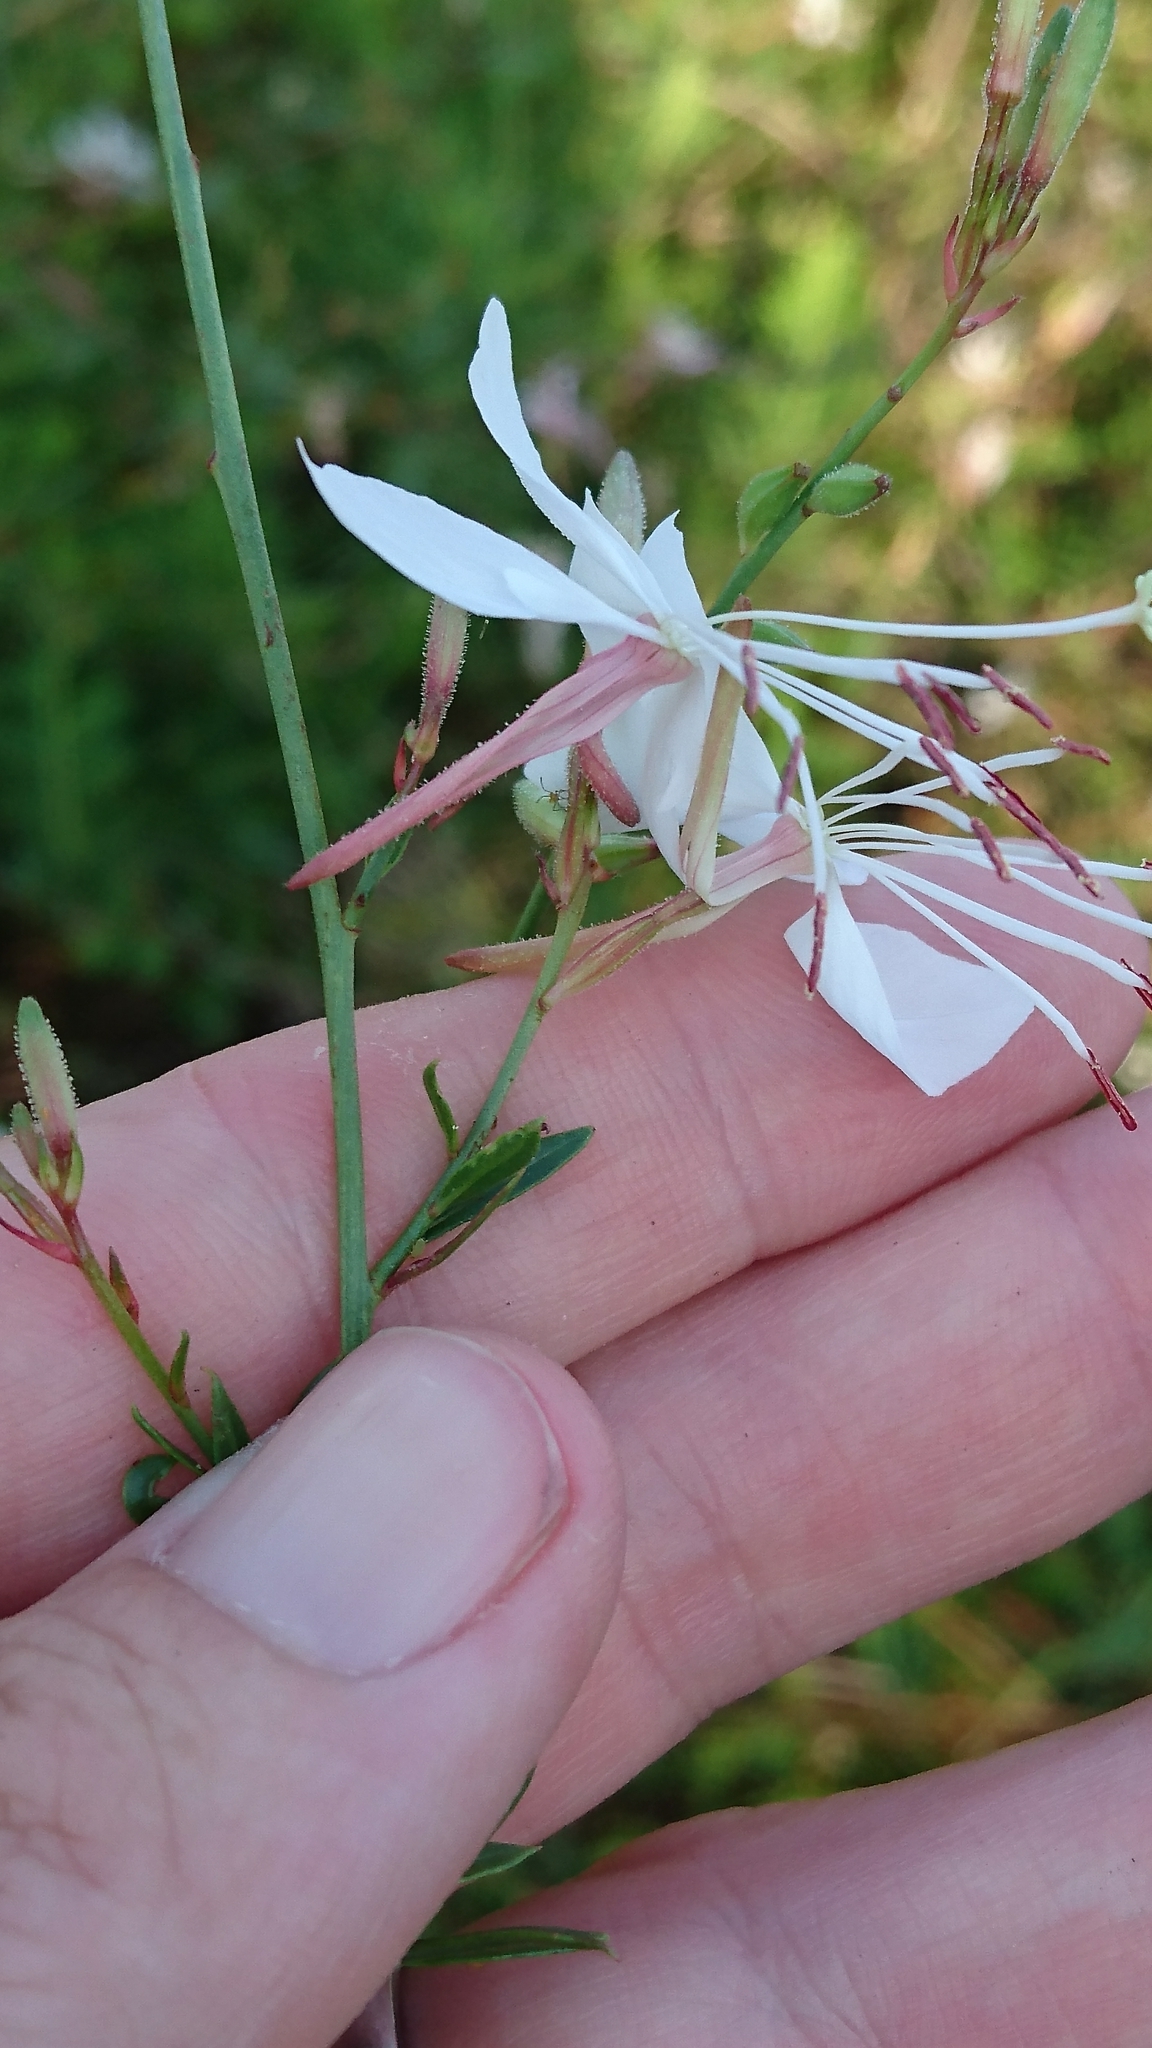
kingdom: Plantae
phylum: Tracheophyta
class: Magnoliopsida
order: Myrtales
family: Onagraceae
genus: Oenothera
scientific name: Oenothera lindheimeri
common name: Lindheimer's beeblossom
